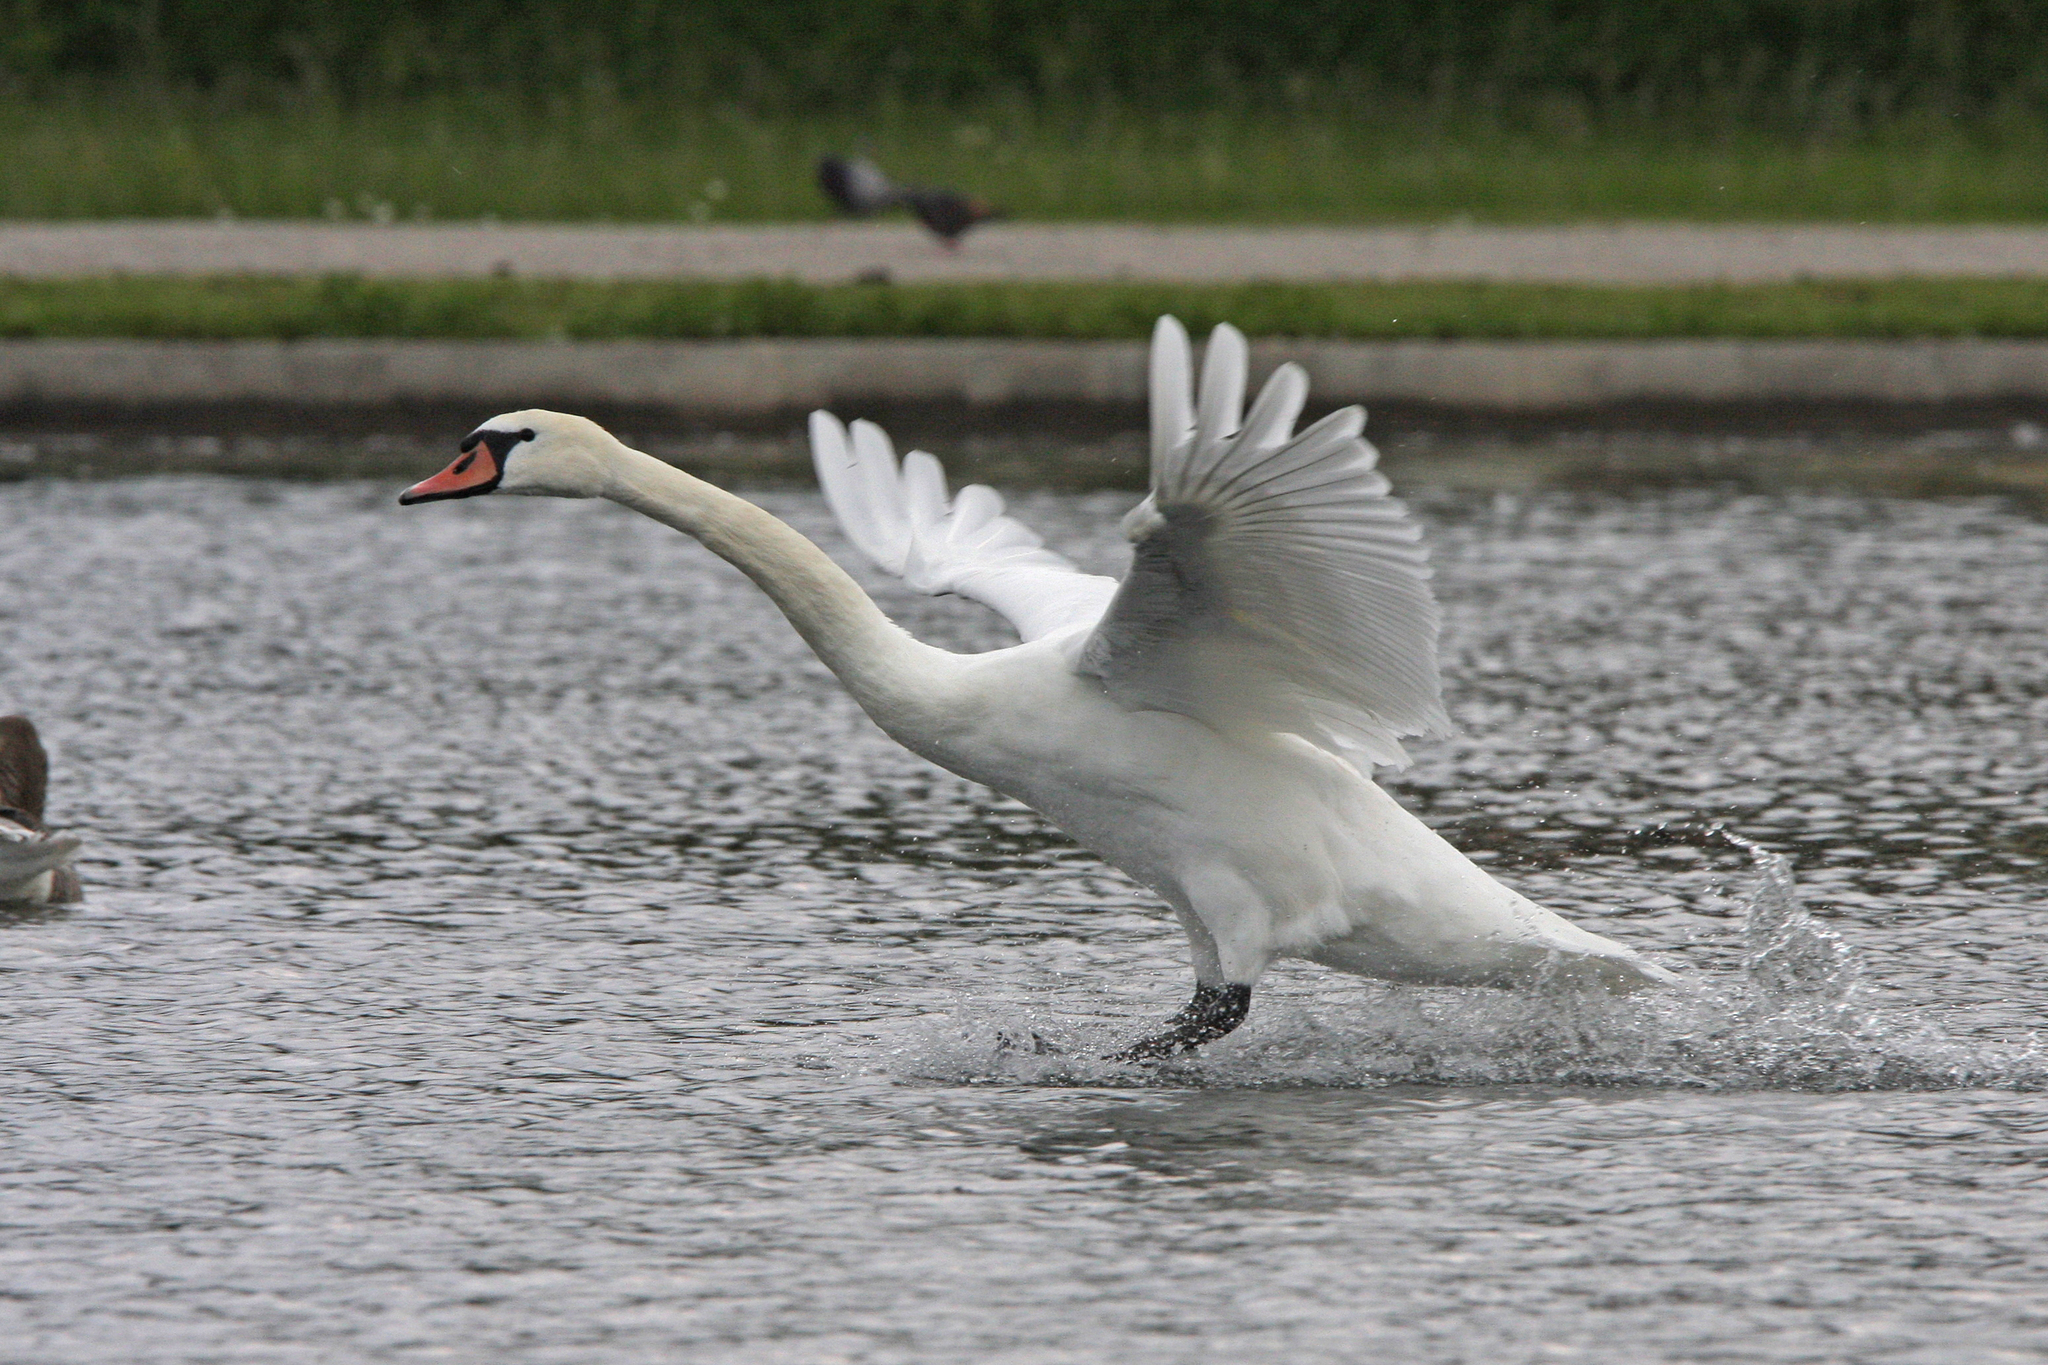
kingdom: Animalia
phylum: Chordata
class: Aves
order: Anseriformes
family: Anatidae
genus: Cygnus
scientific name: Cygnus olor
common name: Mute swan
